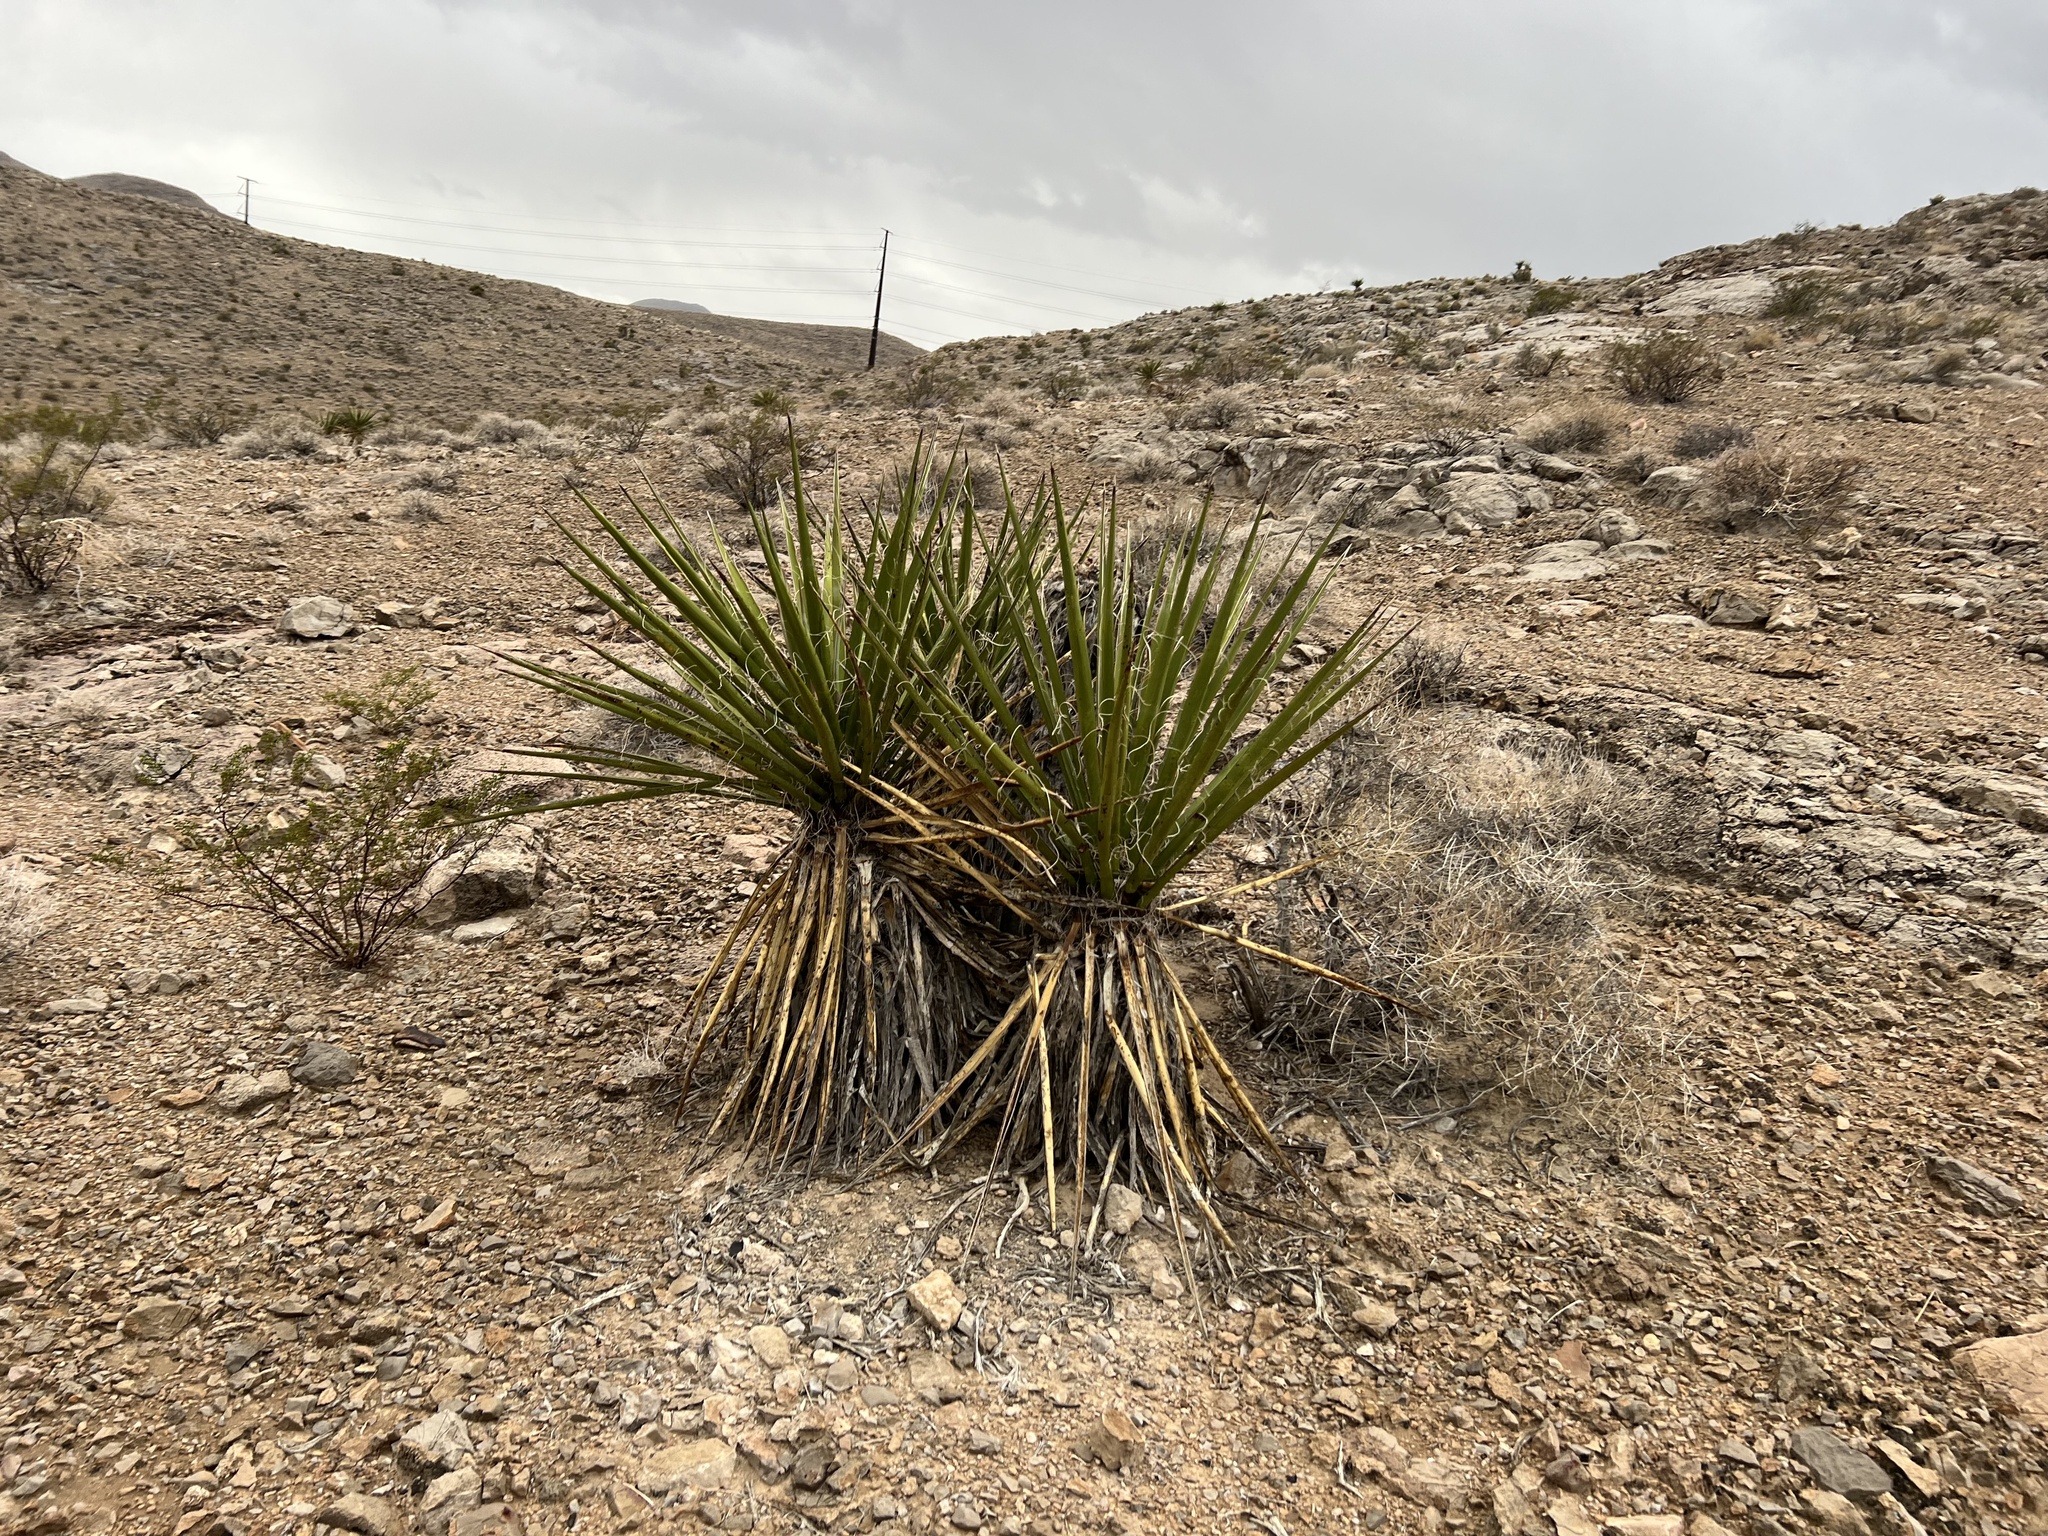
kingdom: Plantae
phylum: Tracheophyta
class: Liliopsida
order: Asparagales
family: Asparagaceae
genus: Yucca
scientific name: Yucca schidigera
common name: Mojave yucca
